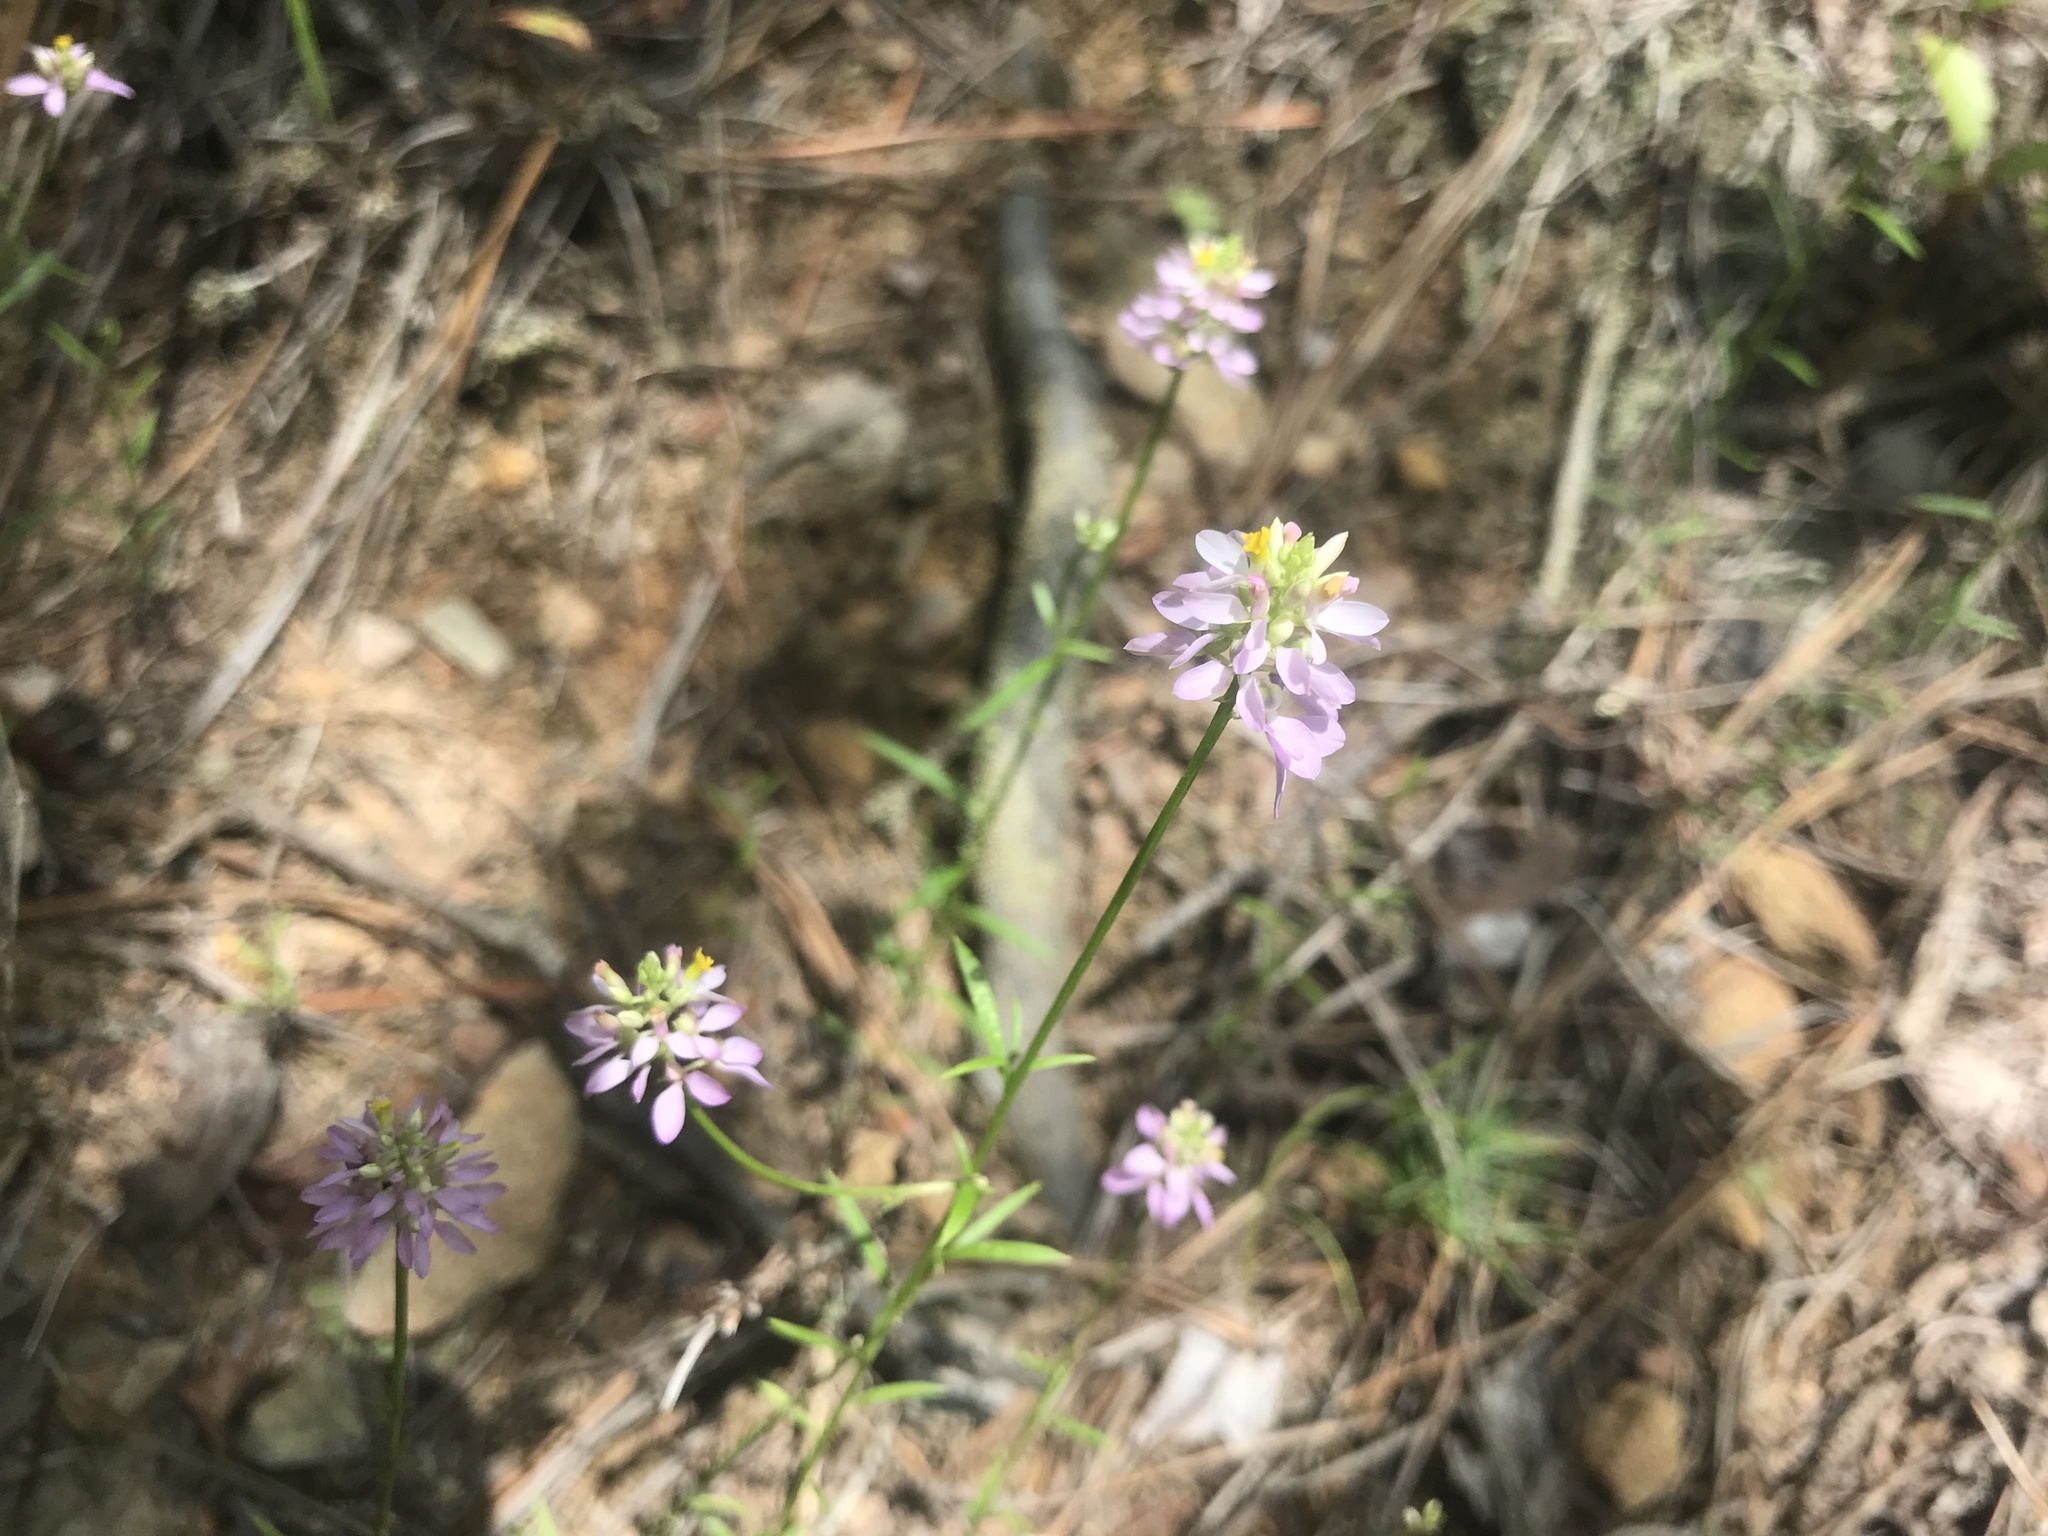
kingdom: Plantae
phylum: Tracheophyta
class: Magnoliopsida
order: Fabales
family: Polygalaceae
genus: Polygala
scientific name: Polygala curtissii
